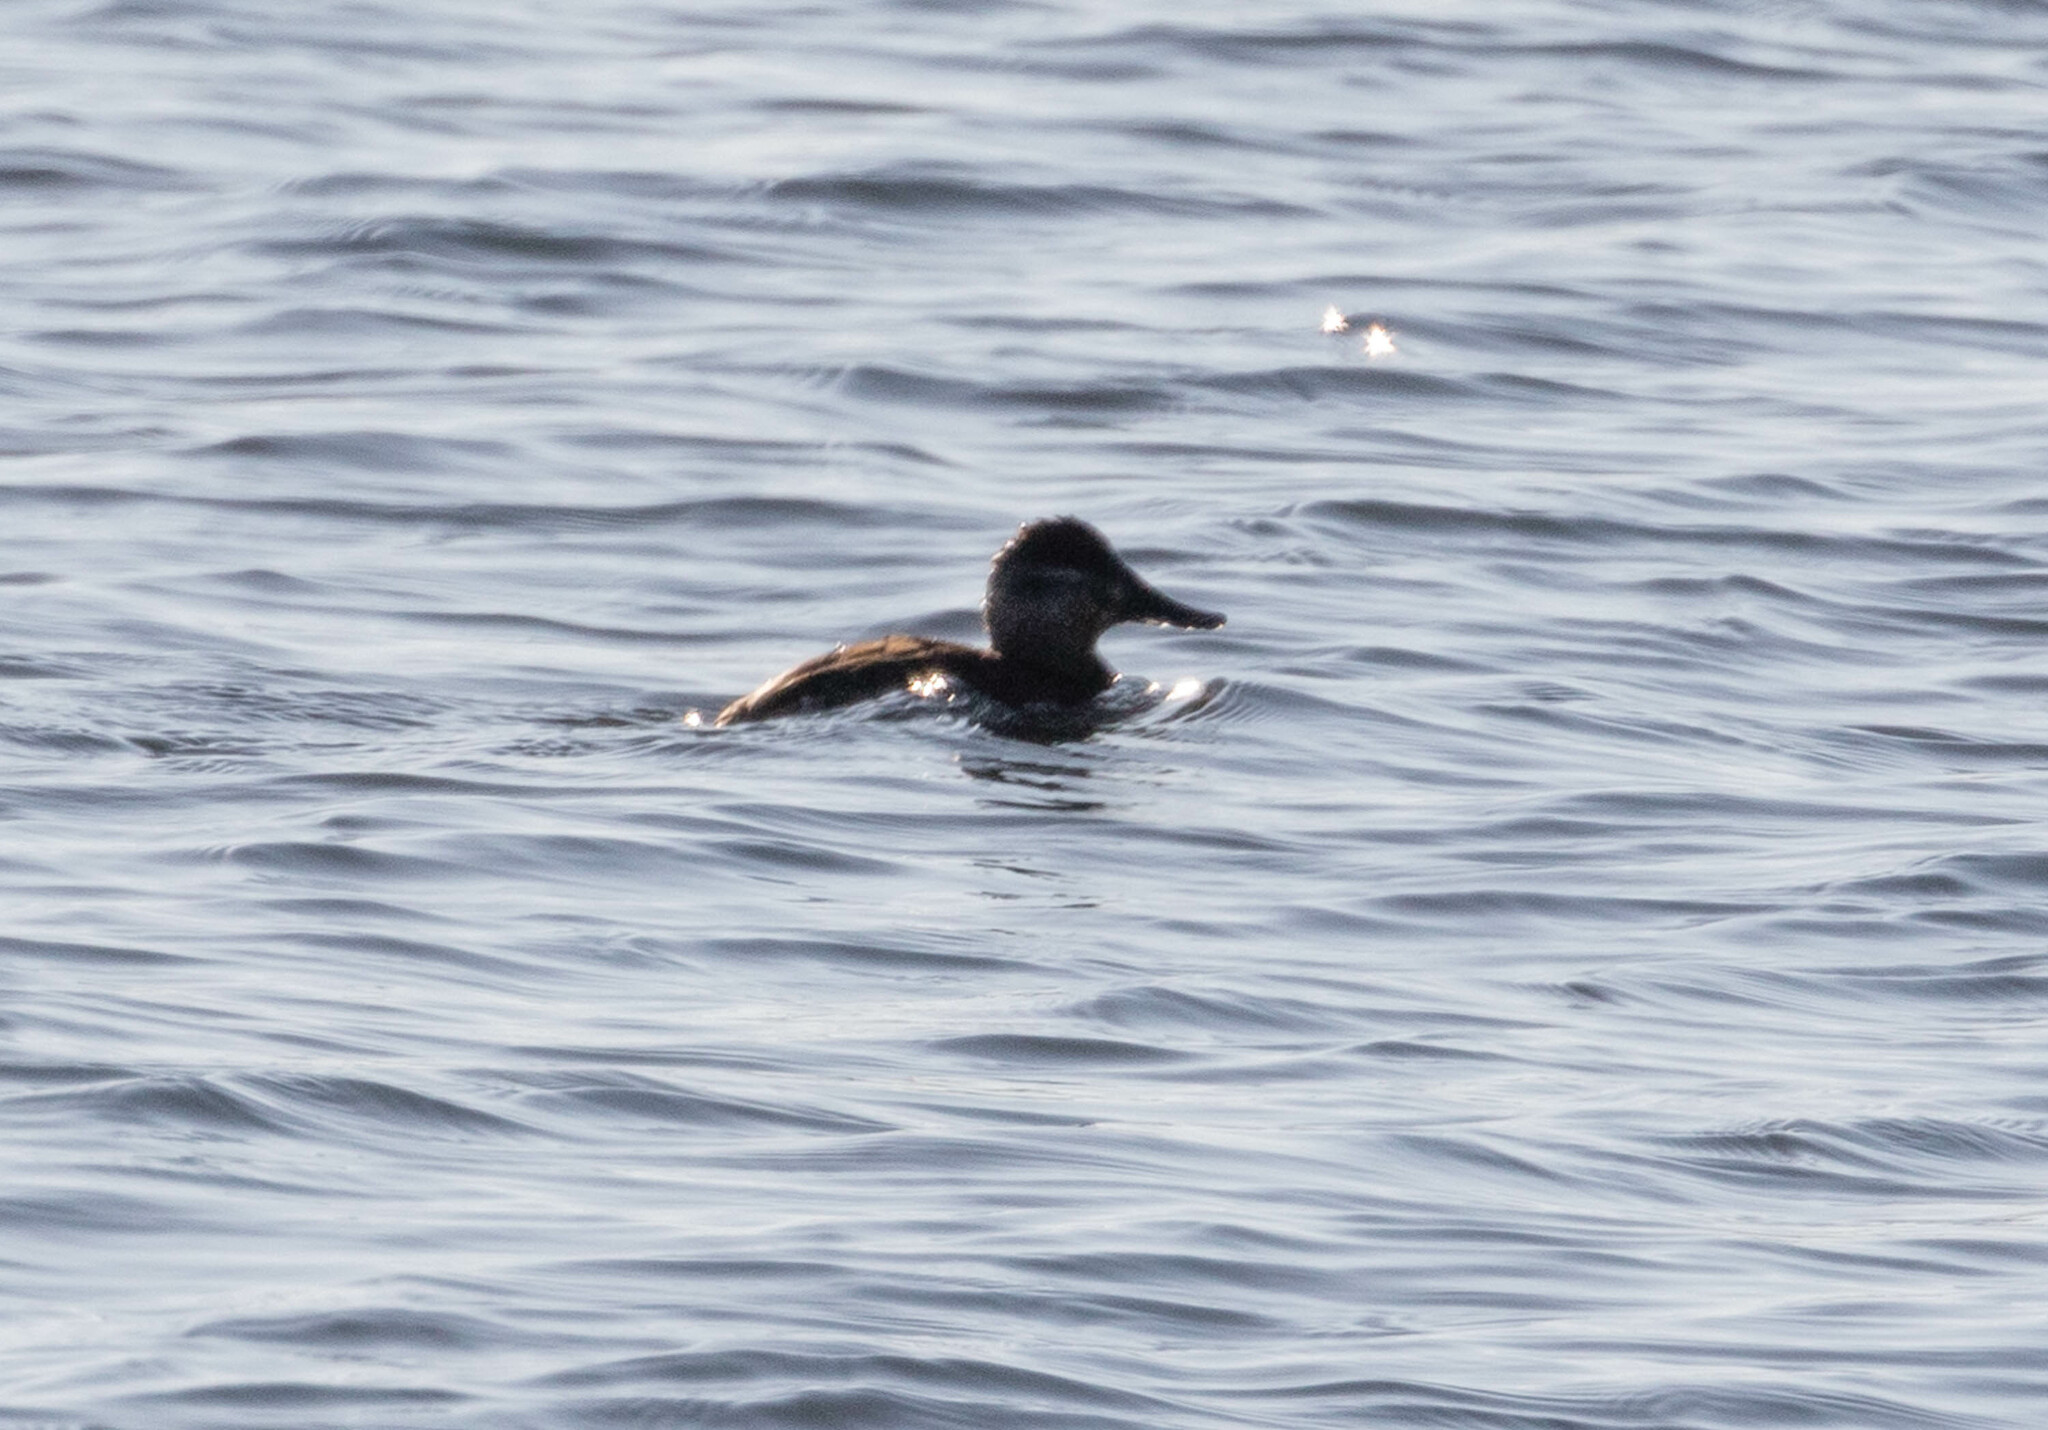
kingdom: Animalia
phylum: Chordata
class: Aves
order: Anseriformes
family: Anatidae
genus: Oxyura
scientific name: Oxyura jamaicensis
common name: Ruddy duck
